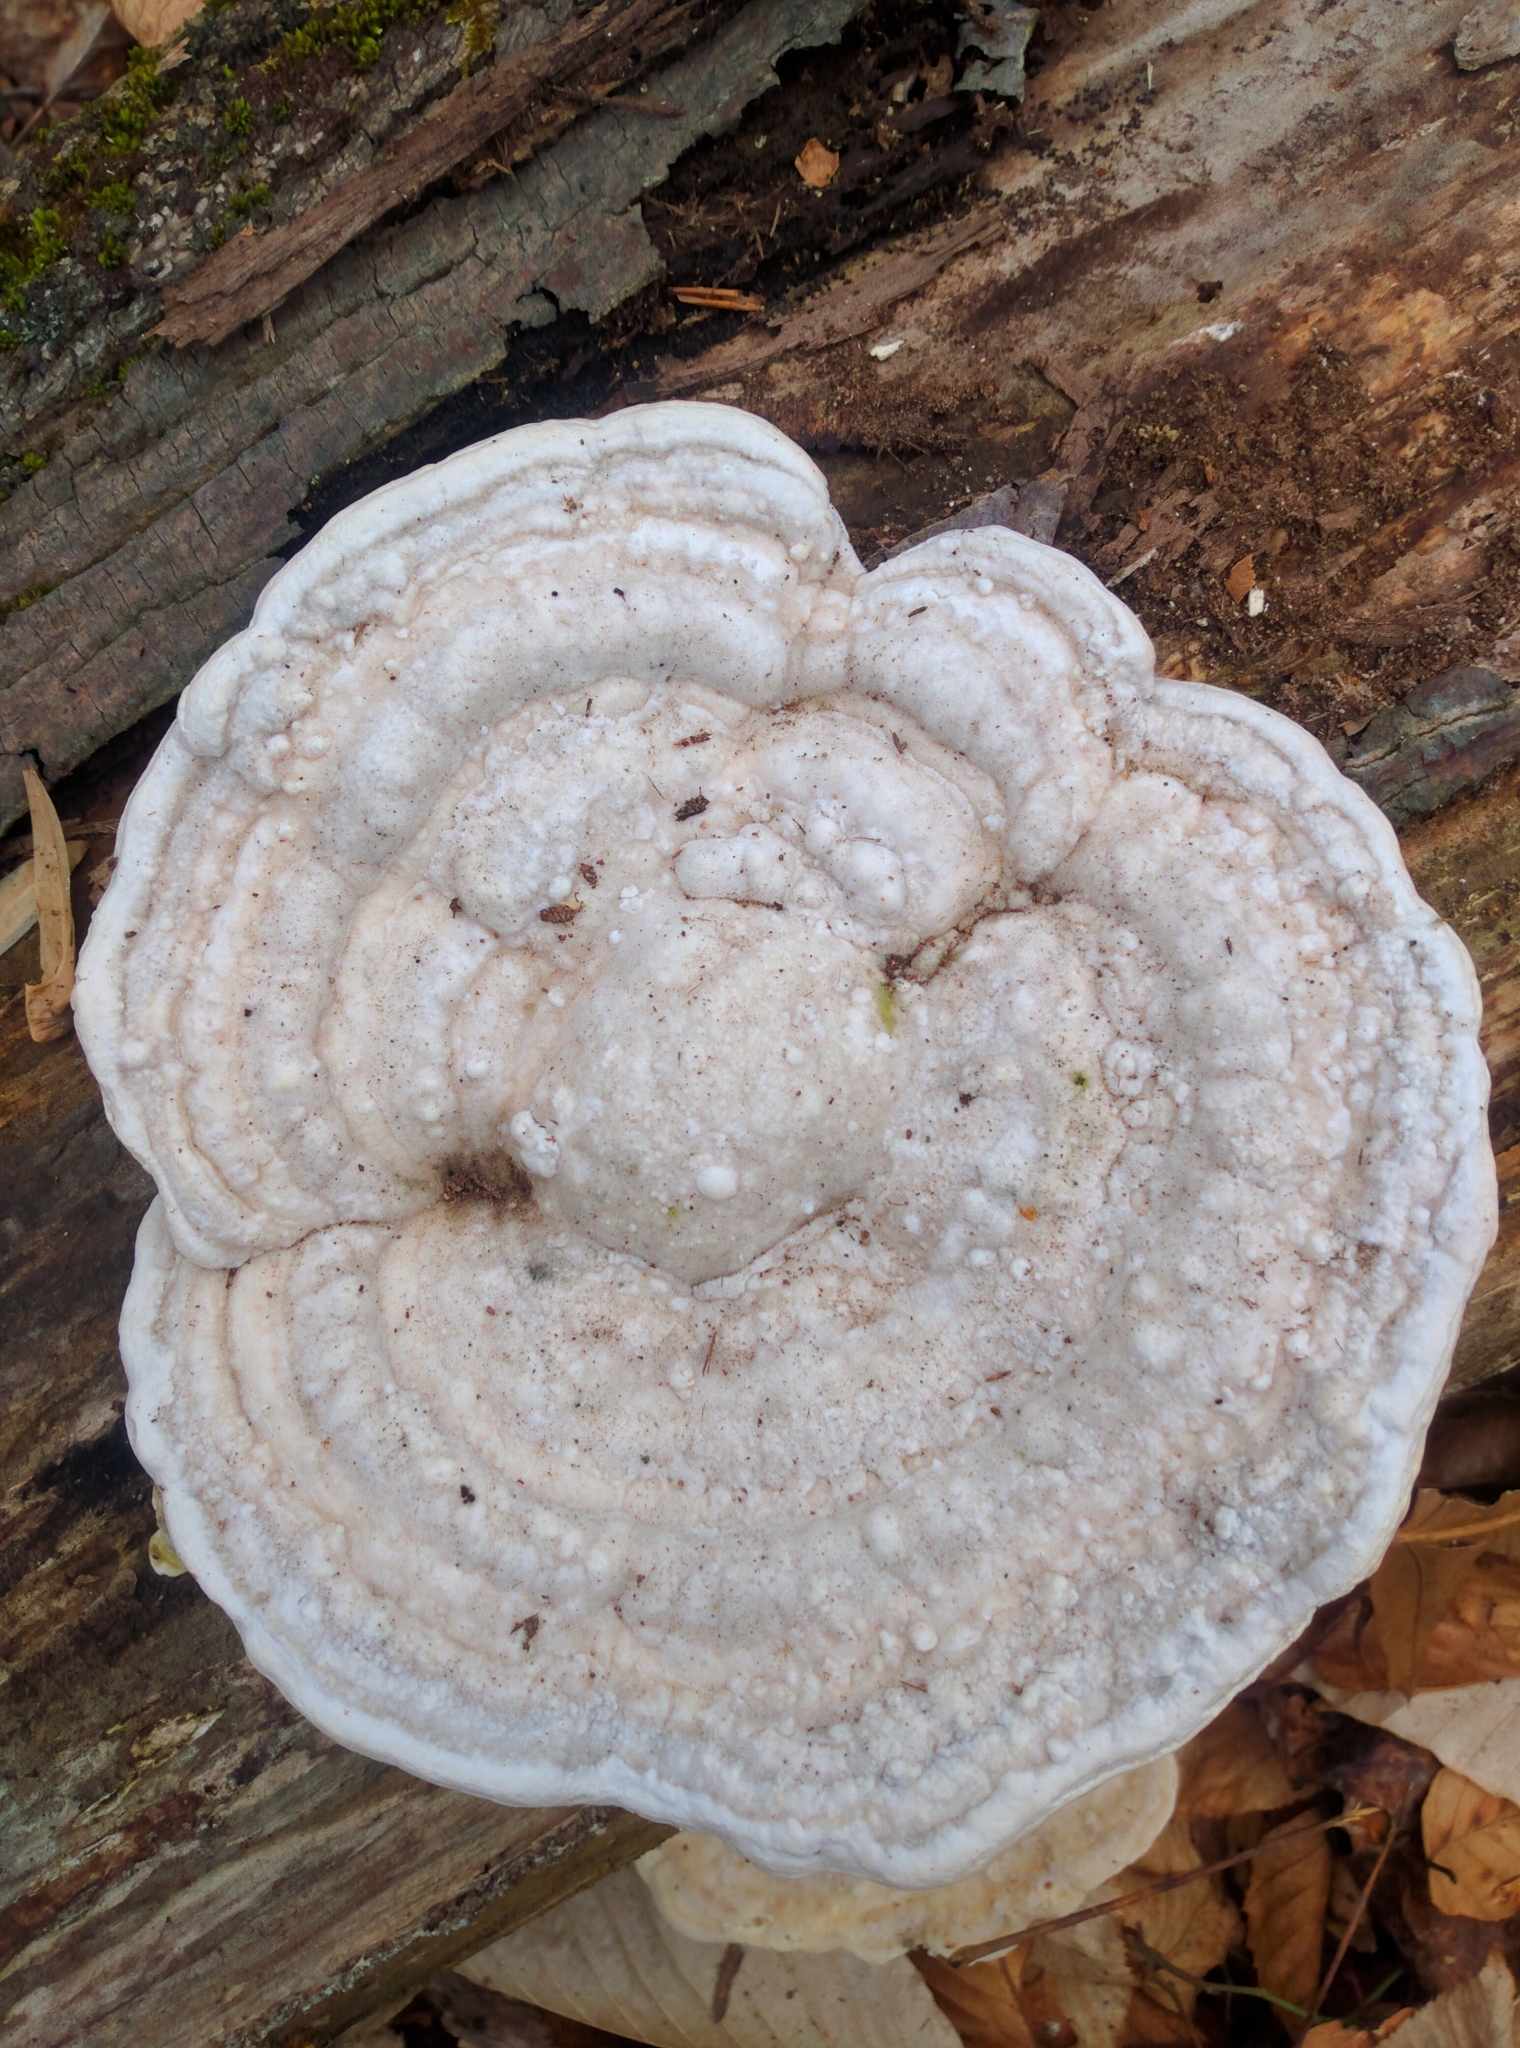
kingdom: Fungi
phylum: Basidiomycota
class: Agaricomycetes
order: Polyporales
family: Polyporaceae
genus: Trametes
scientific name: Trametes gibbosa
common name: Lumpy bracket
